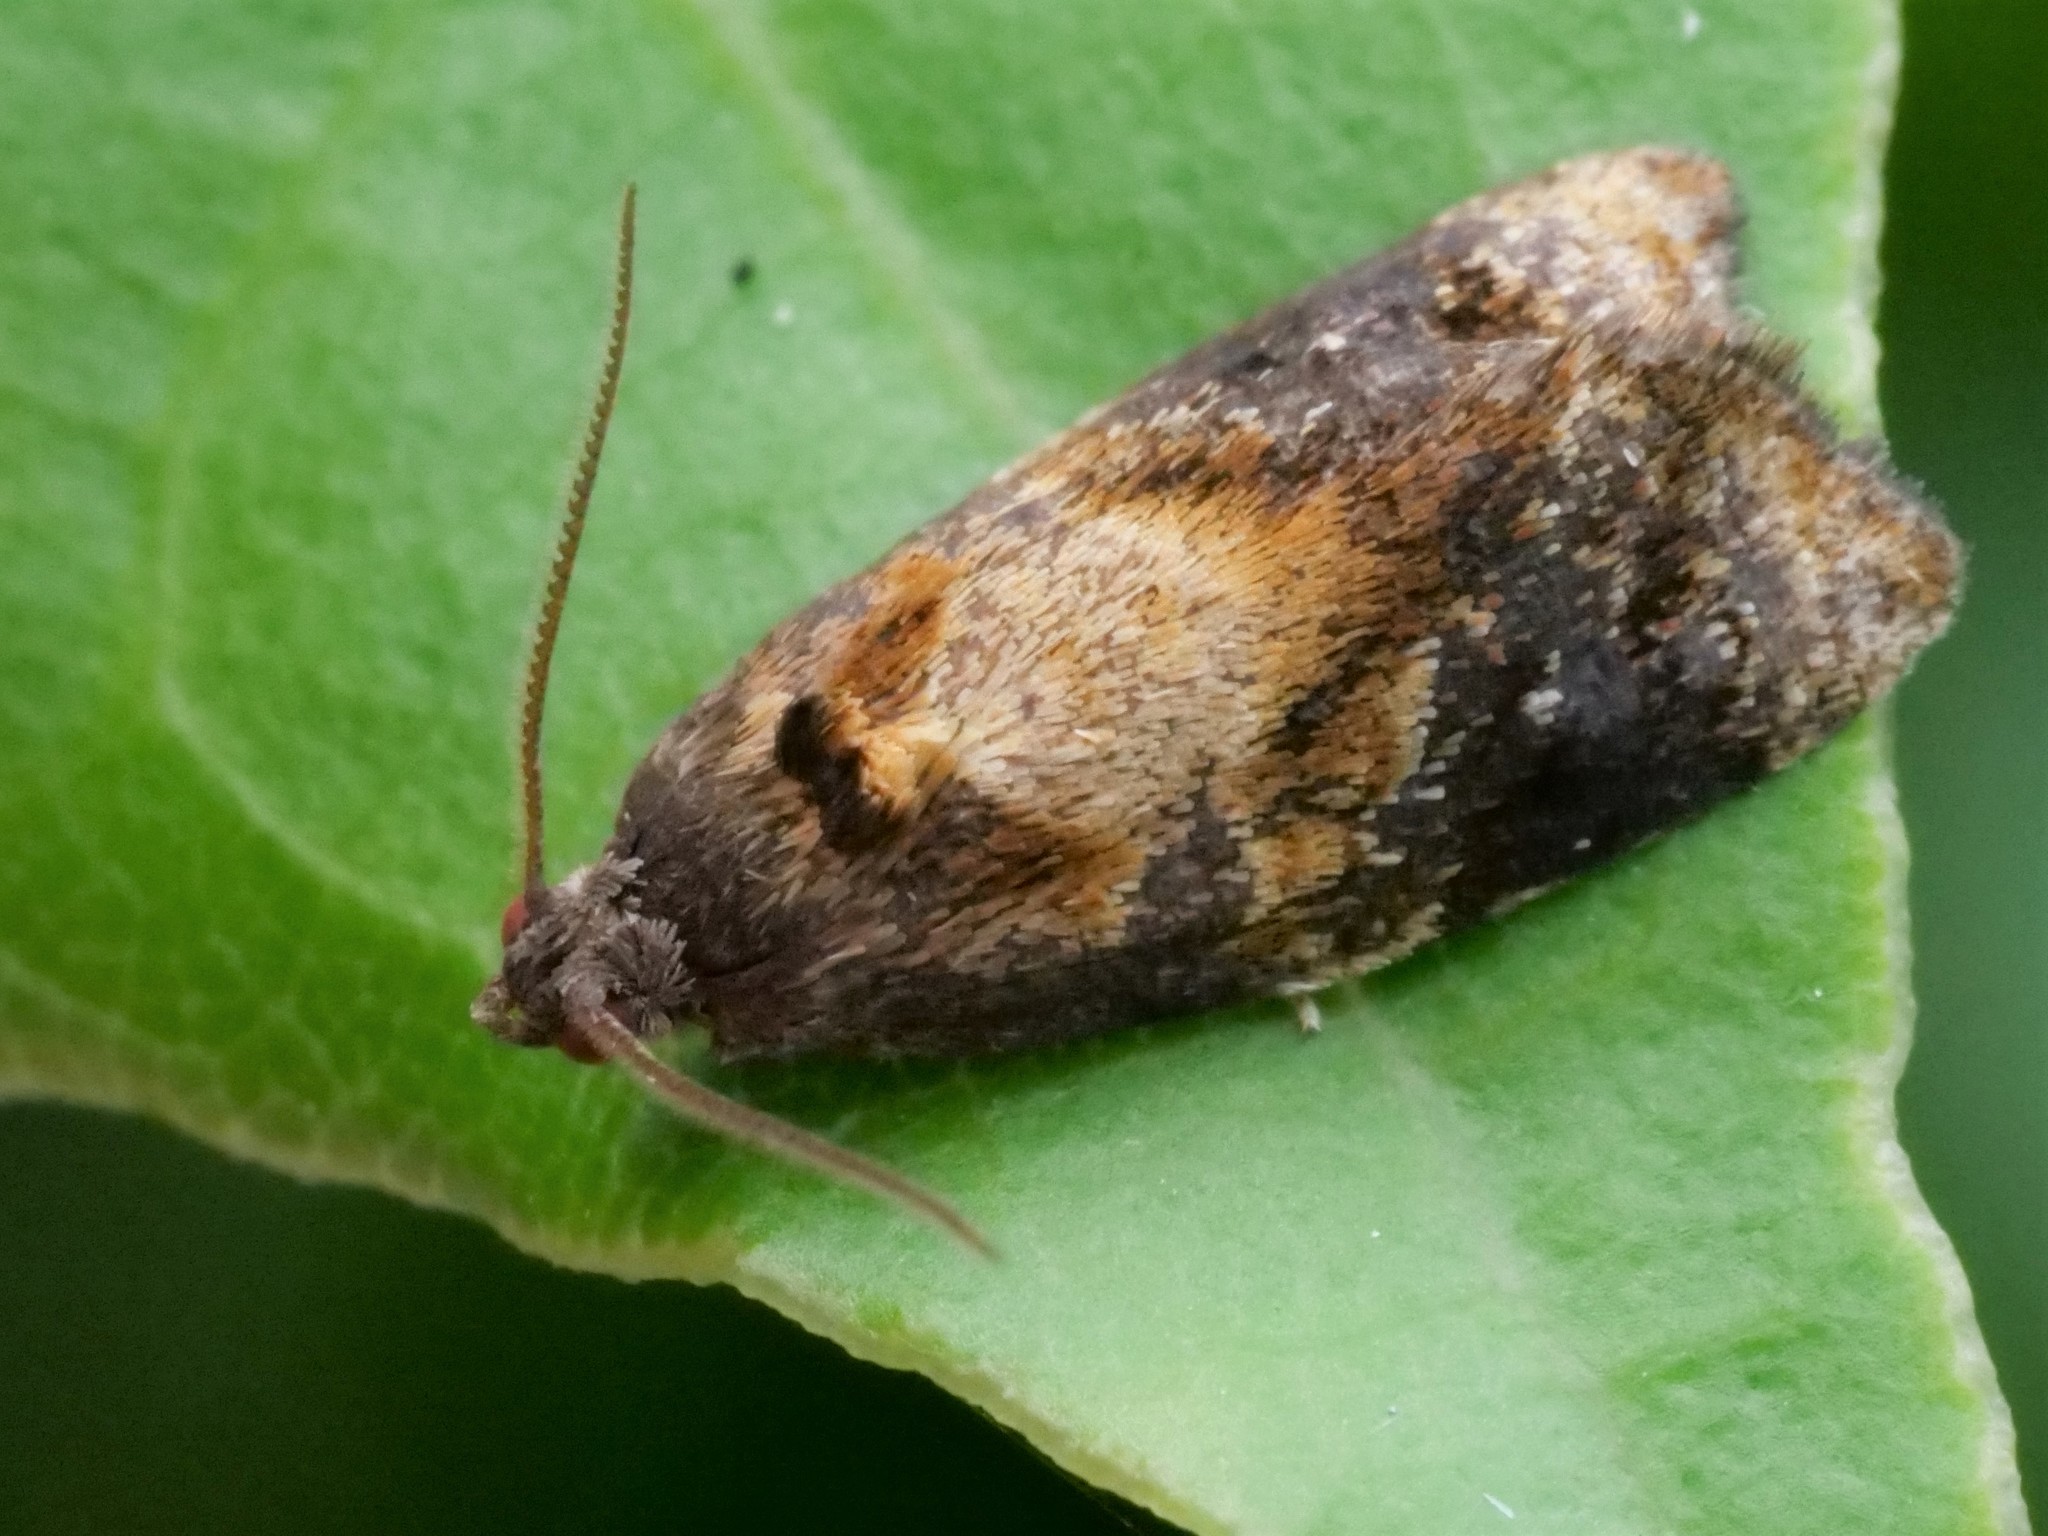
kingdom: Animalia
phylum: Arthropoda
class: Insecta
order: Lepidoptera
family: Tortricidae
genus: Archips
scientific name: Archips podana
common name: Large fruit-tree tortrix
